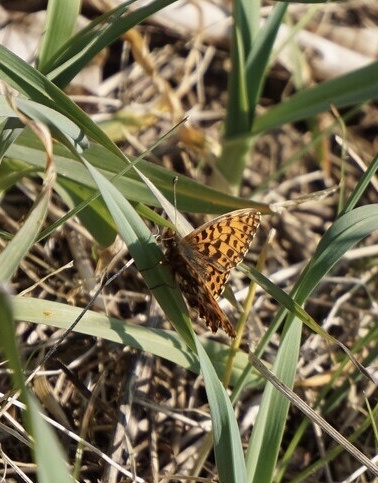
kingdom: Animalia
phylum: Arthropoda
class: Insecta
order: Lepidoptera
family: Nymphalidae
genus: Boloria
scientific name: Boloria dia
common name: Weaver's fritillary
